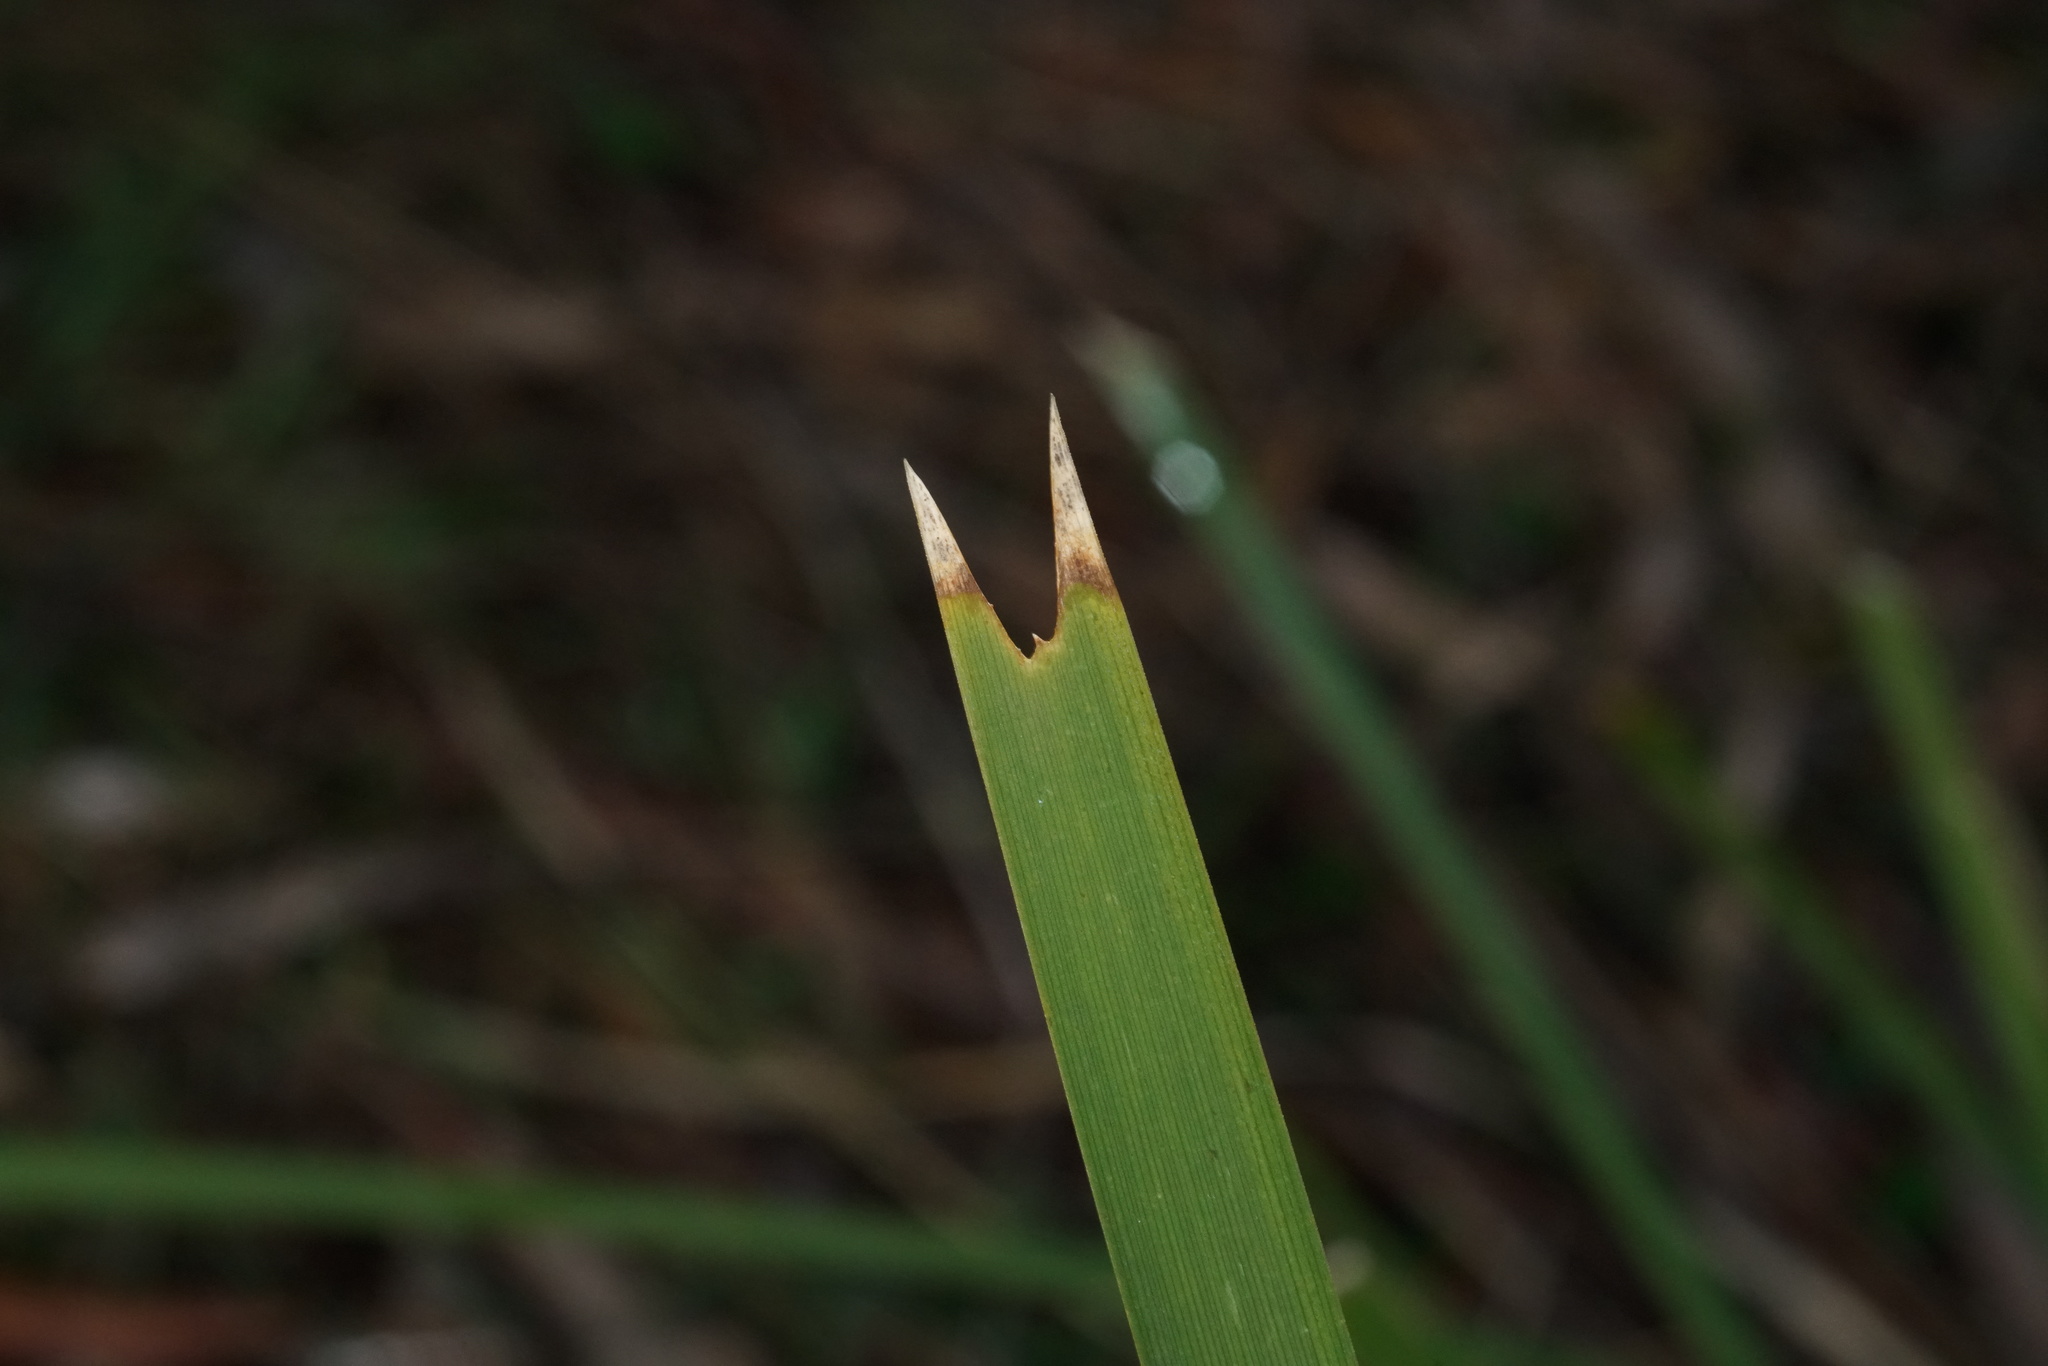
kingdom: Plantae
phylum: Tracheophyta
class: Liliopsida
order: Asparagales
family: Asparagaceae
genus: Lomandra
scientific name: Lomandra longifolia
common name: Longleaf mat-rush
